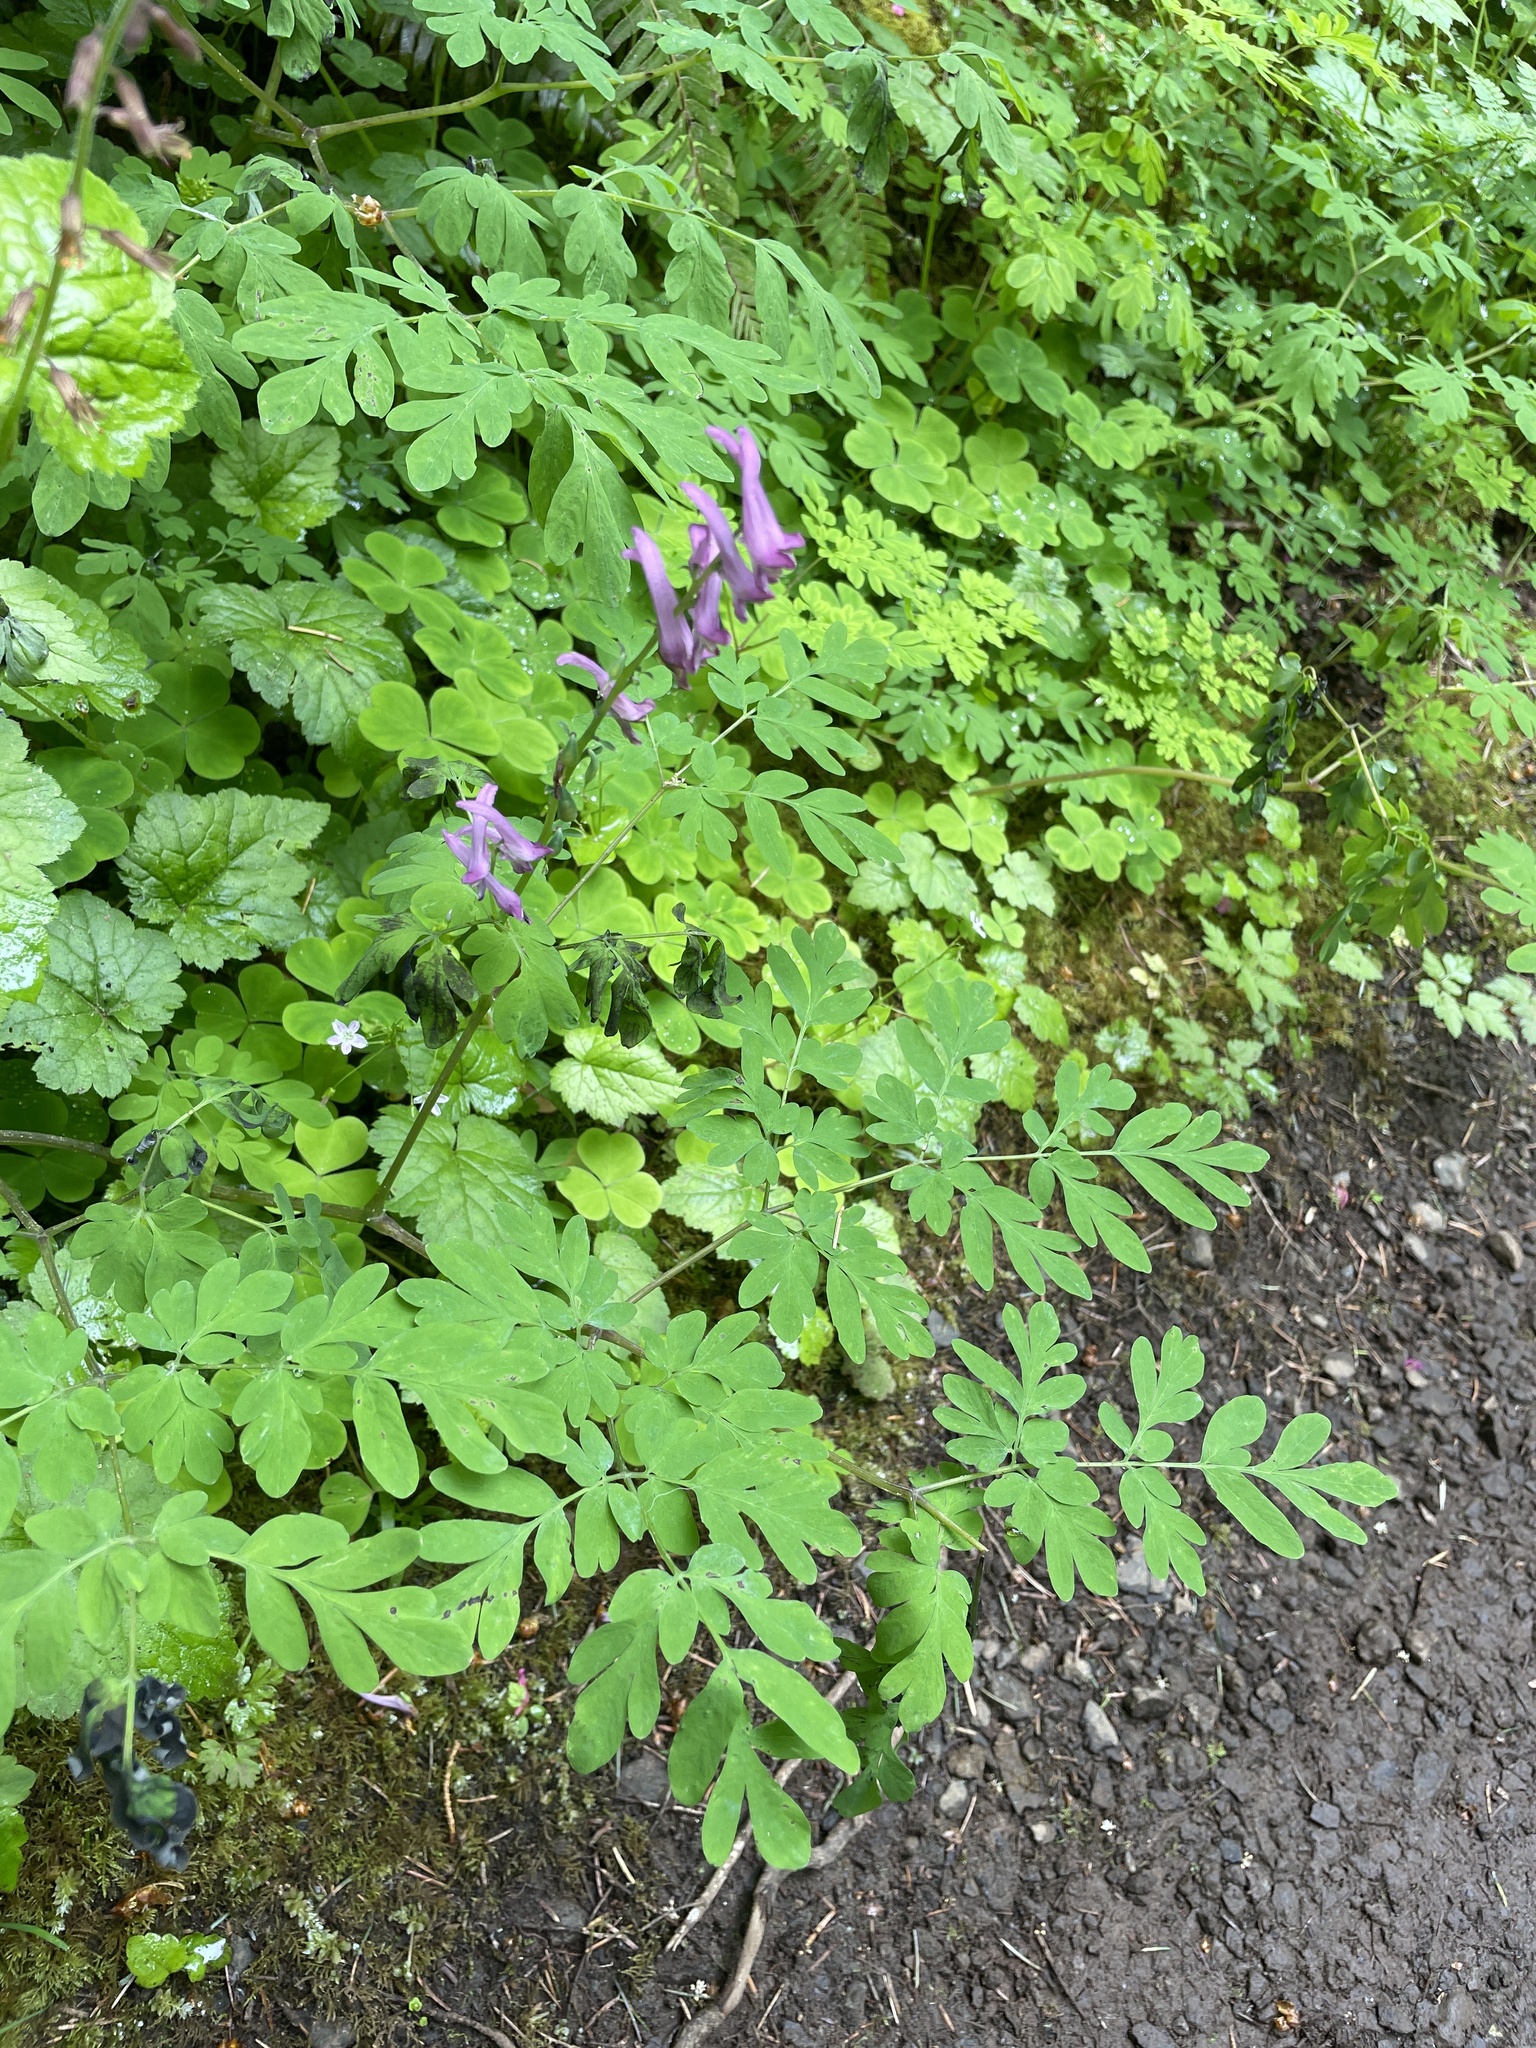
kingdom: Plantae
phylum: Tracheophyta
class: Magnoliopsida
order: Ranunculales
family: Papaveraceae
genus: Corydalis
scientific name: Corydalis scouleri
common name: Scouler's corydalis
